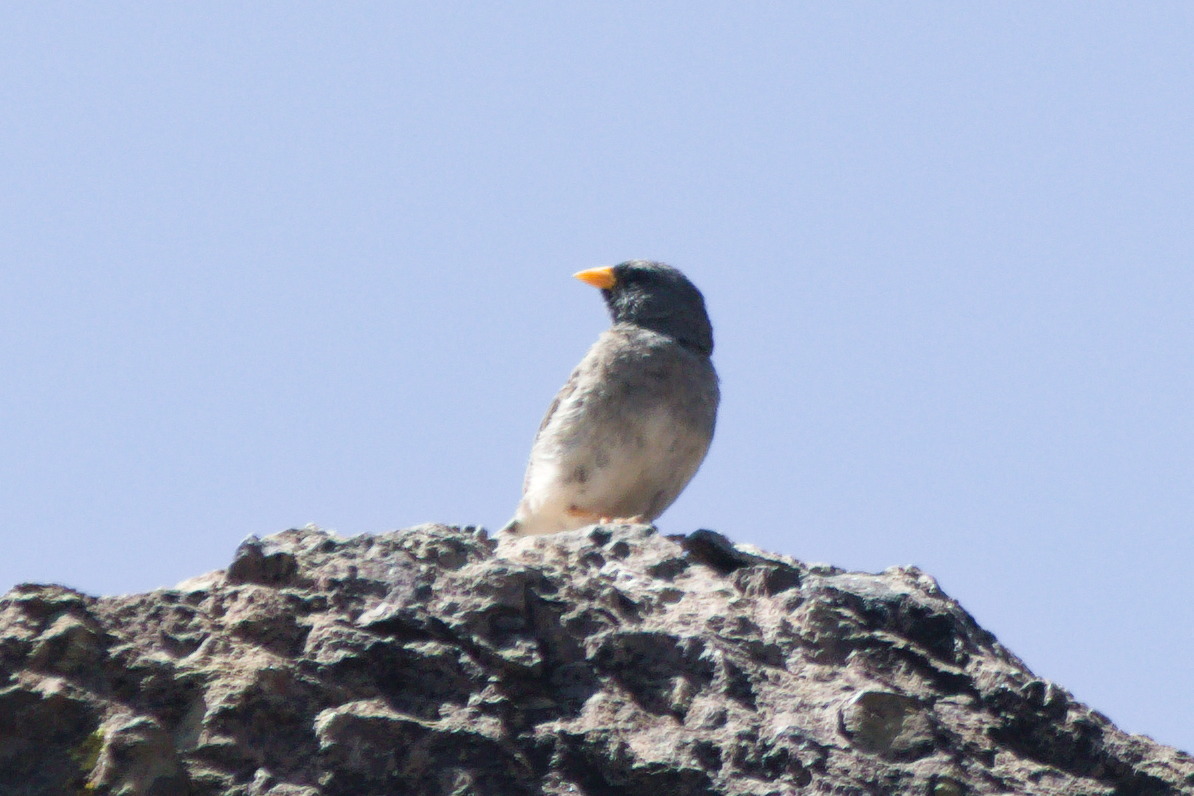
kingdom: Animalia
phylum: Chordata
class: Aves
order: Passeriformes
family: Thraupidae
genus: Porphyrospiza
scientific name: Porphyrospiza alaudina
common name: Band-tailed sierra finch
